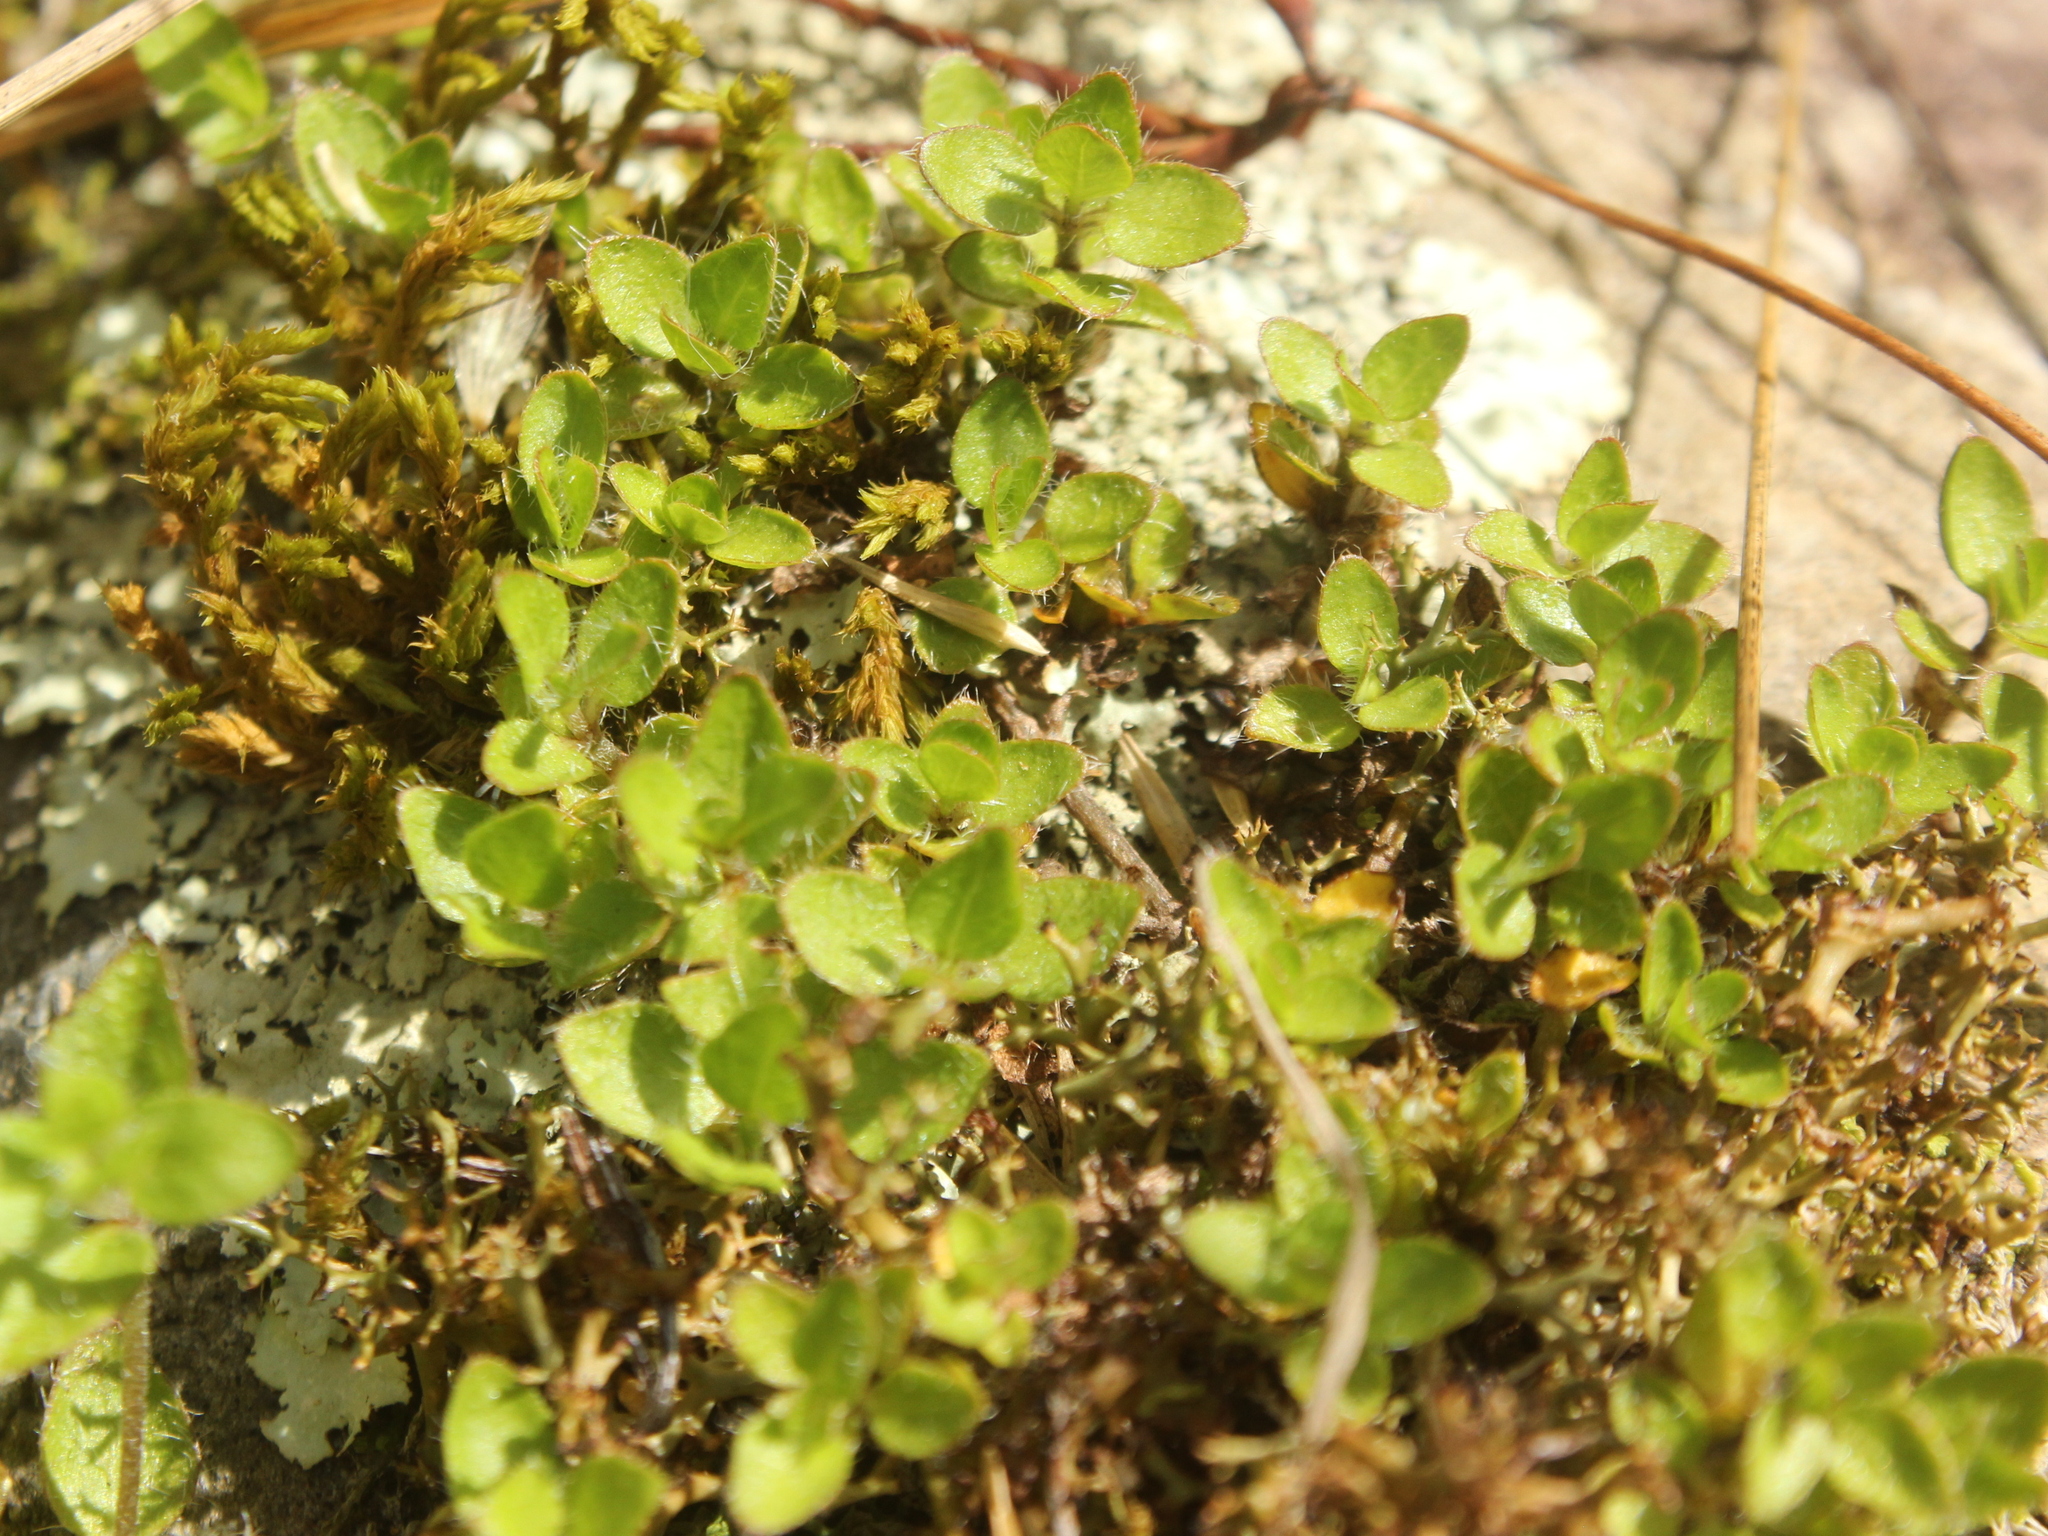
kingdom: Plantae
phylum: Tracheophyta
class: Magnoliopsida
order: Gentianales
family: Rubiaceae
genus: Leptostigma
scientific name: Leptostigma setulosum
